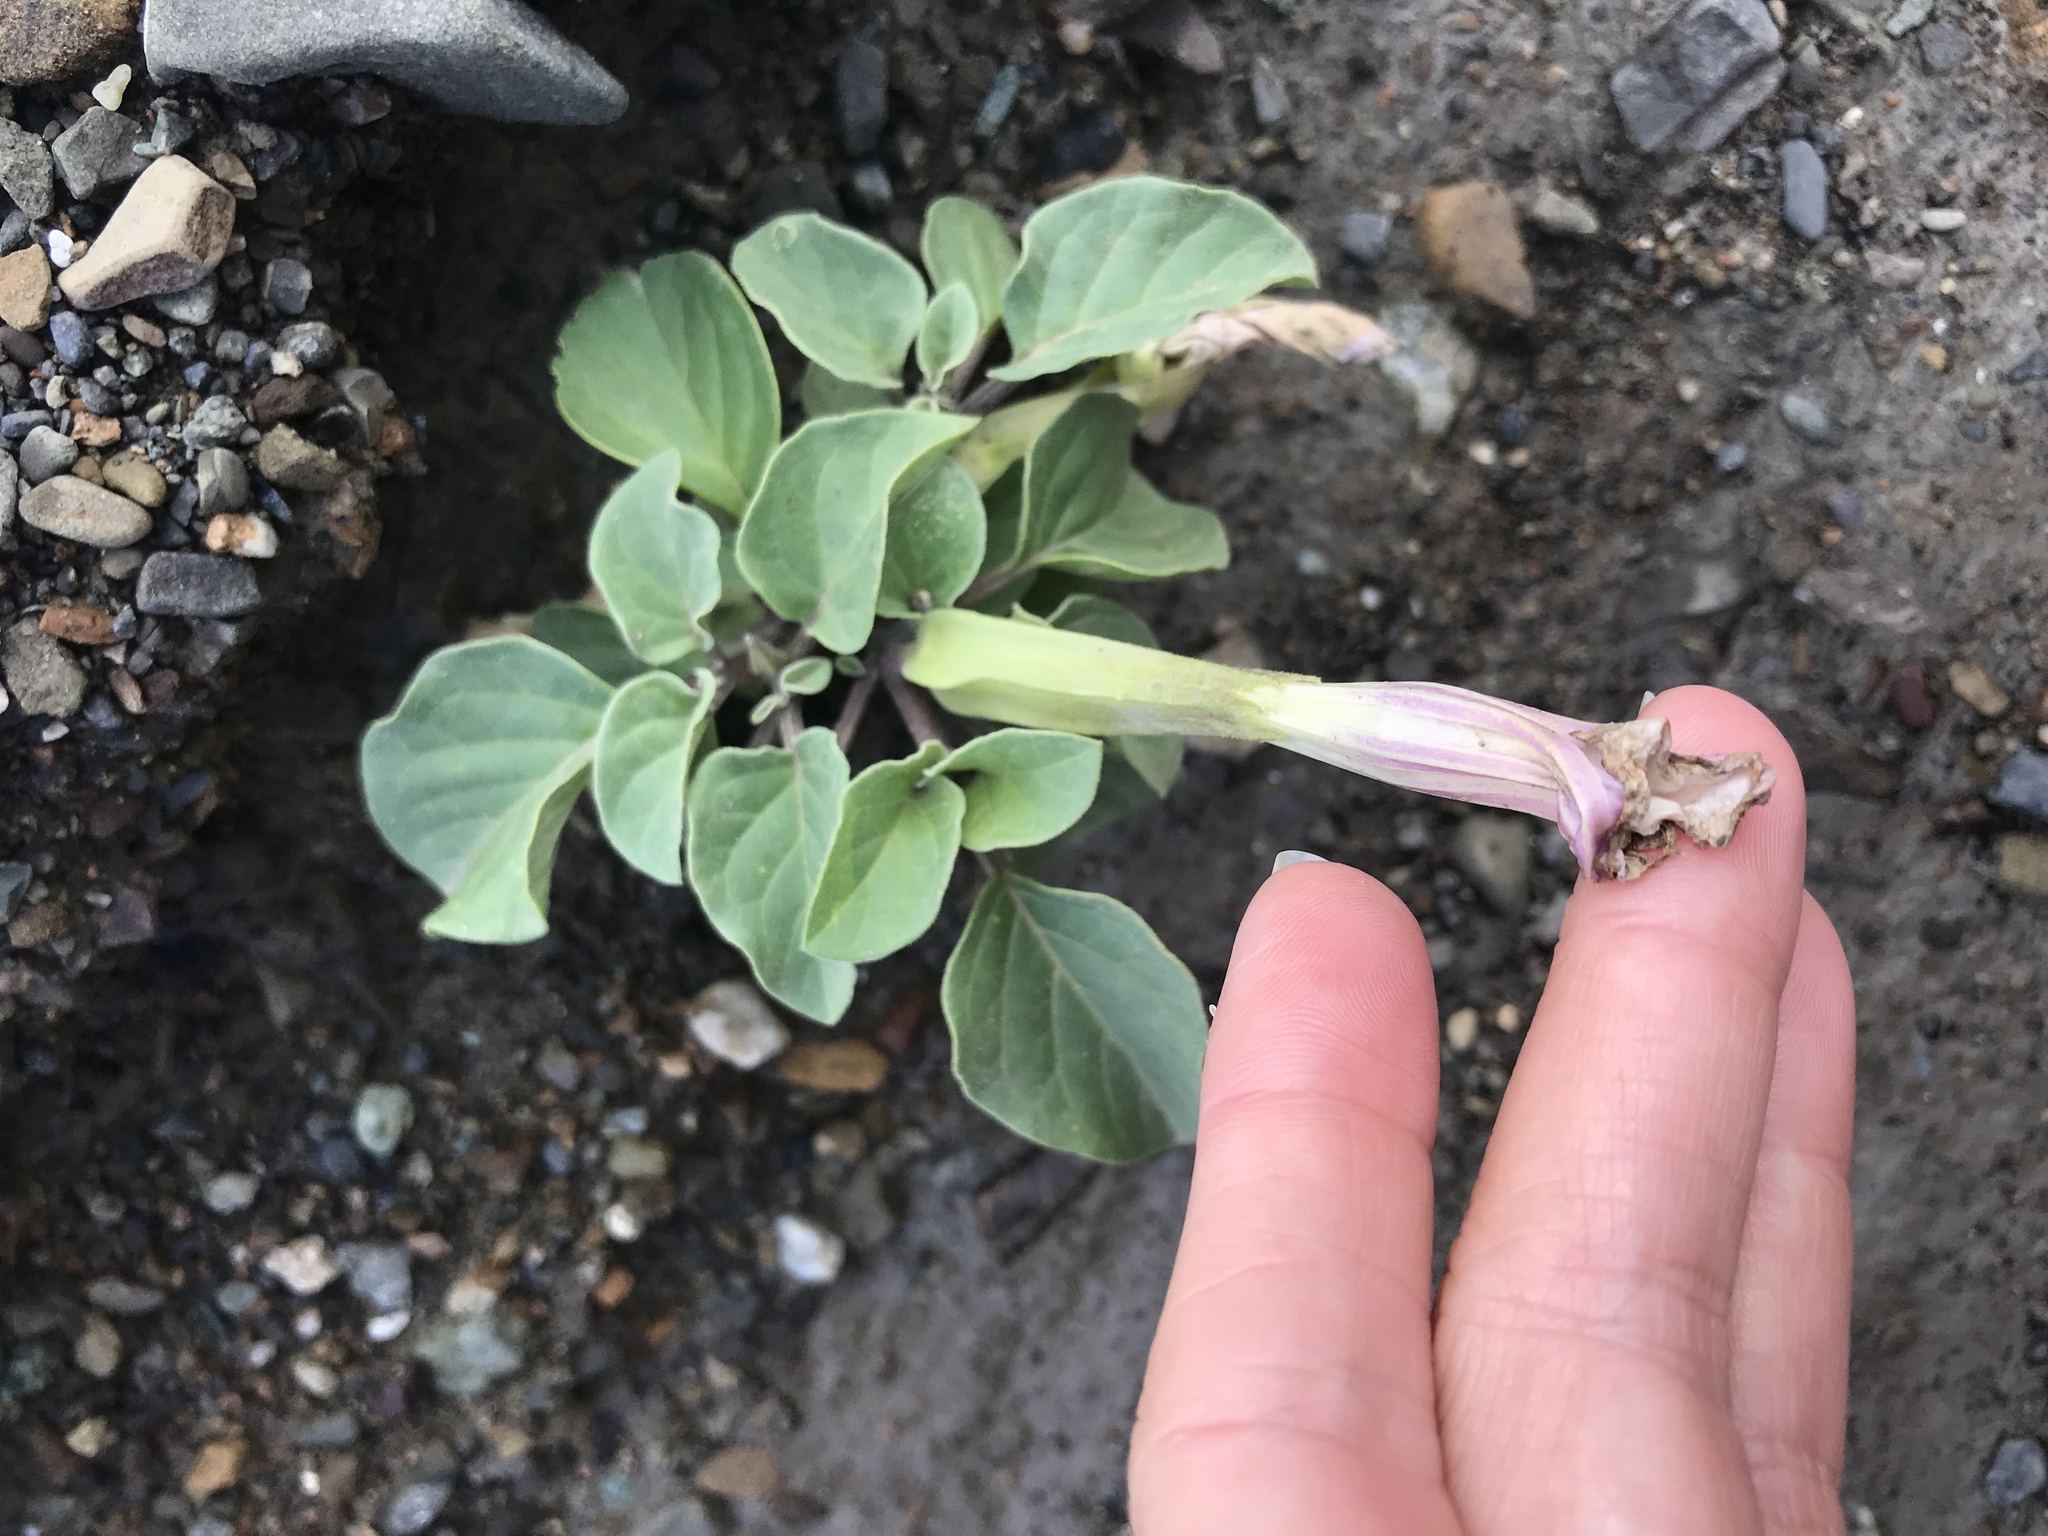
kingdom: Plantae
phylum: Tracheophyta
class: Magnoliopsida
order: Solanales
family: Solanaceae
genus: Datura
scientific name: Datura discolor
